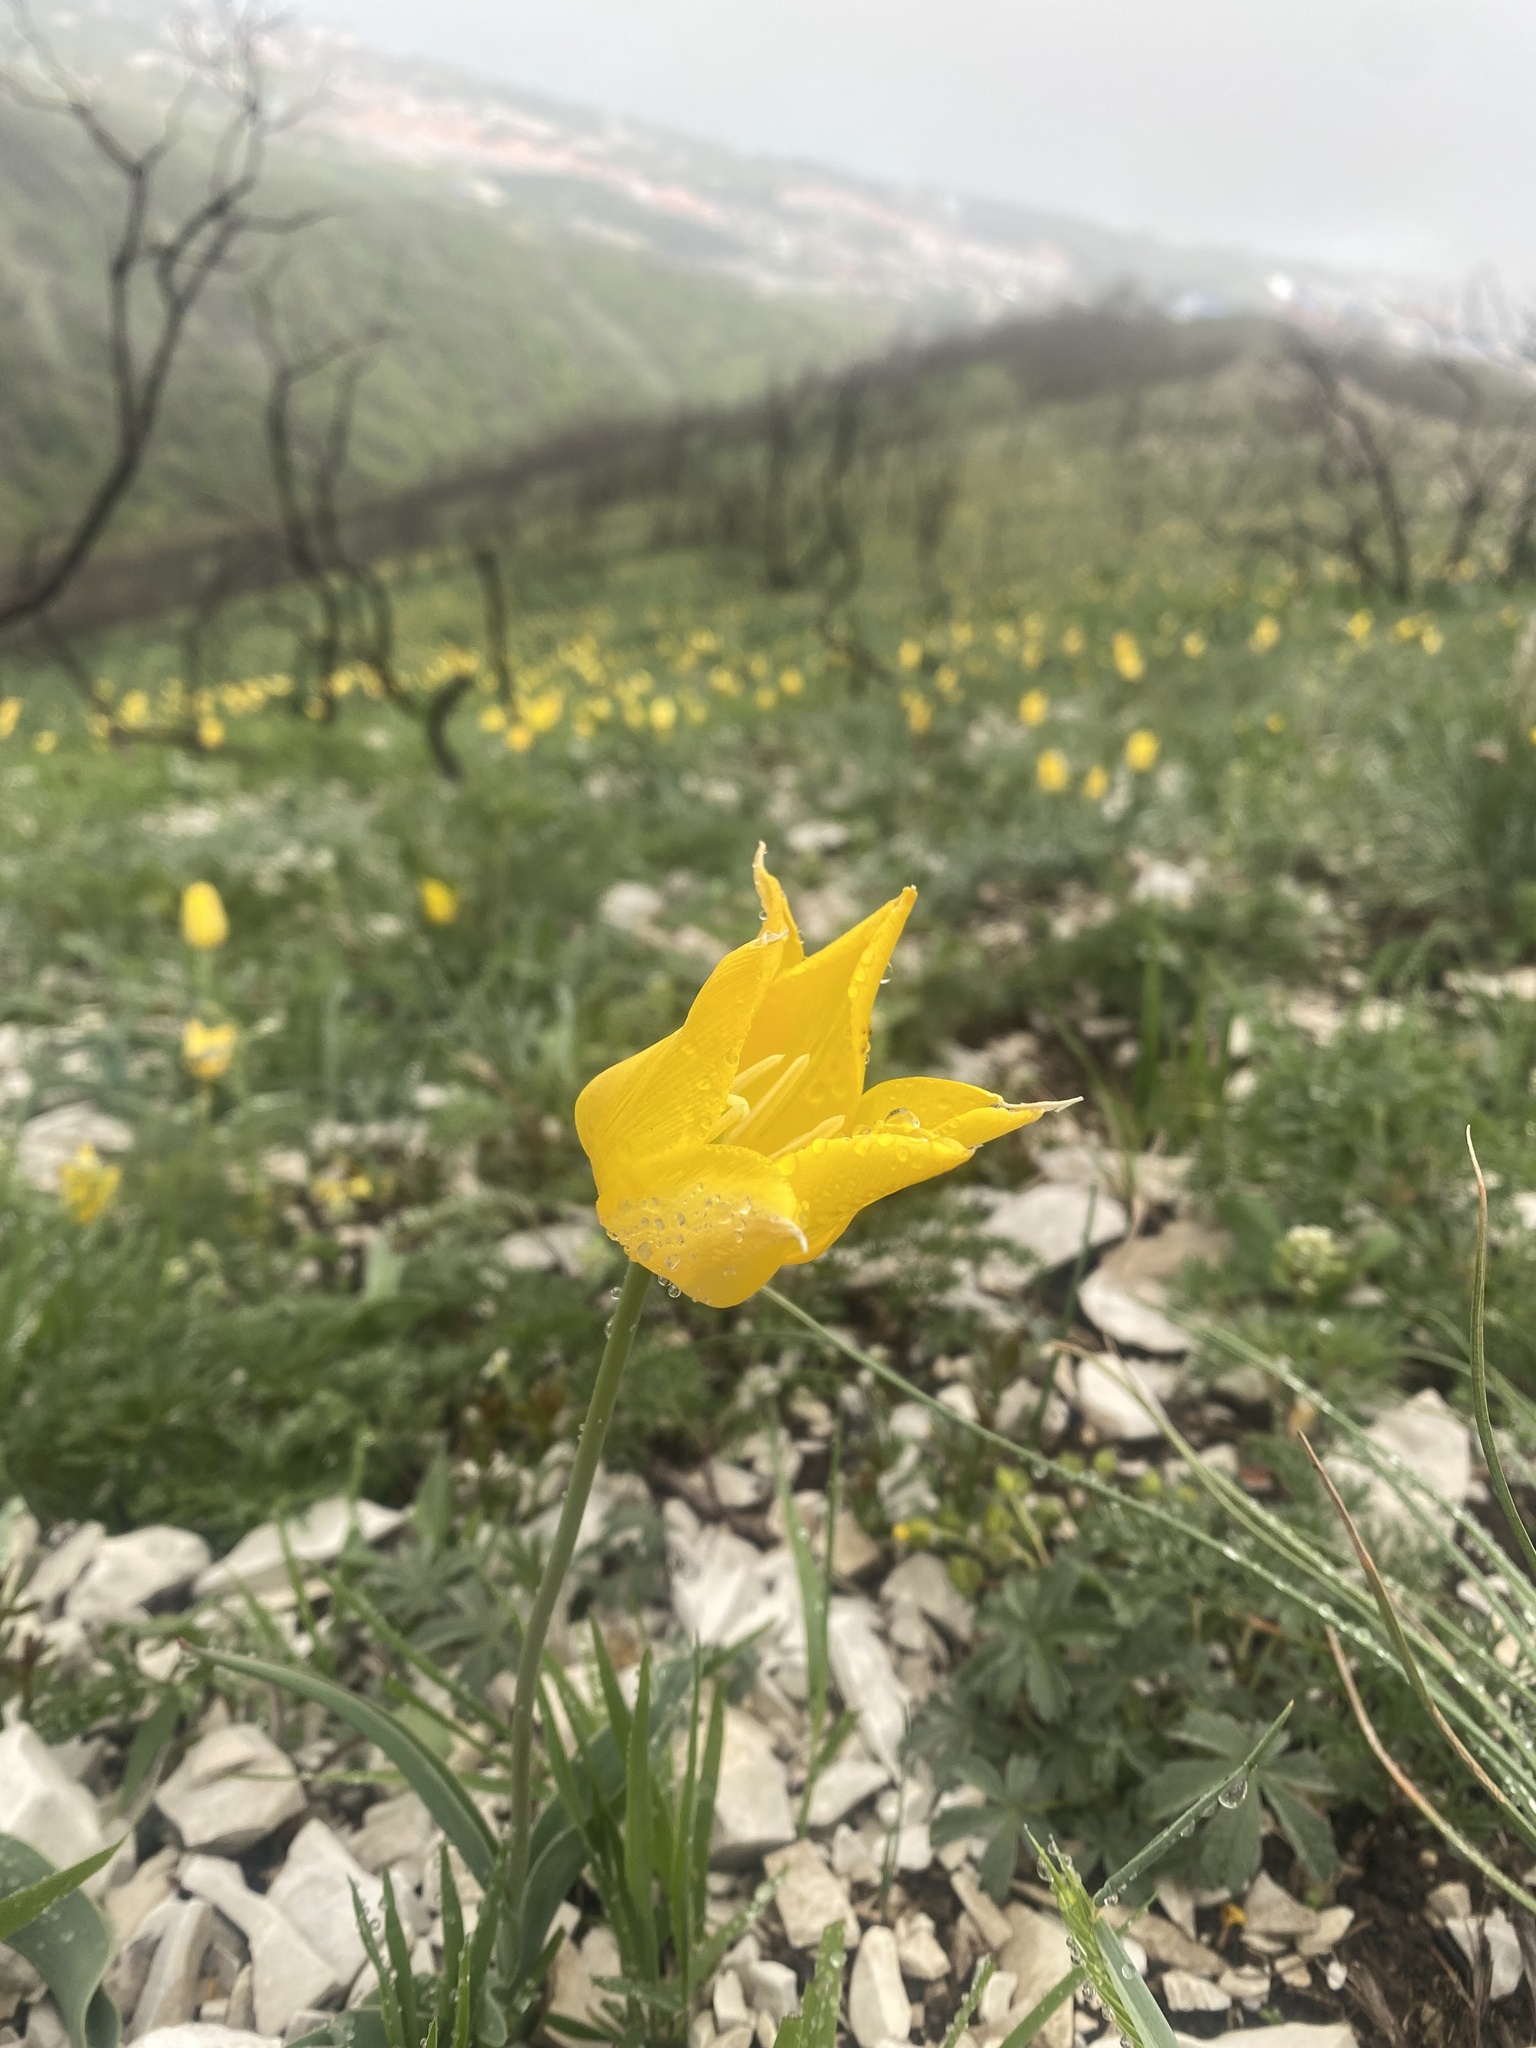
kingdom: Plantae
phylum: Tracheophyta
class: Liliopsida
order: Liliales
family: Liliaceae
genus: Tulipa
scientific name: Tulipa suaveolens
